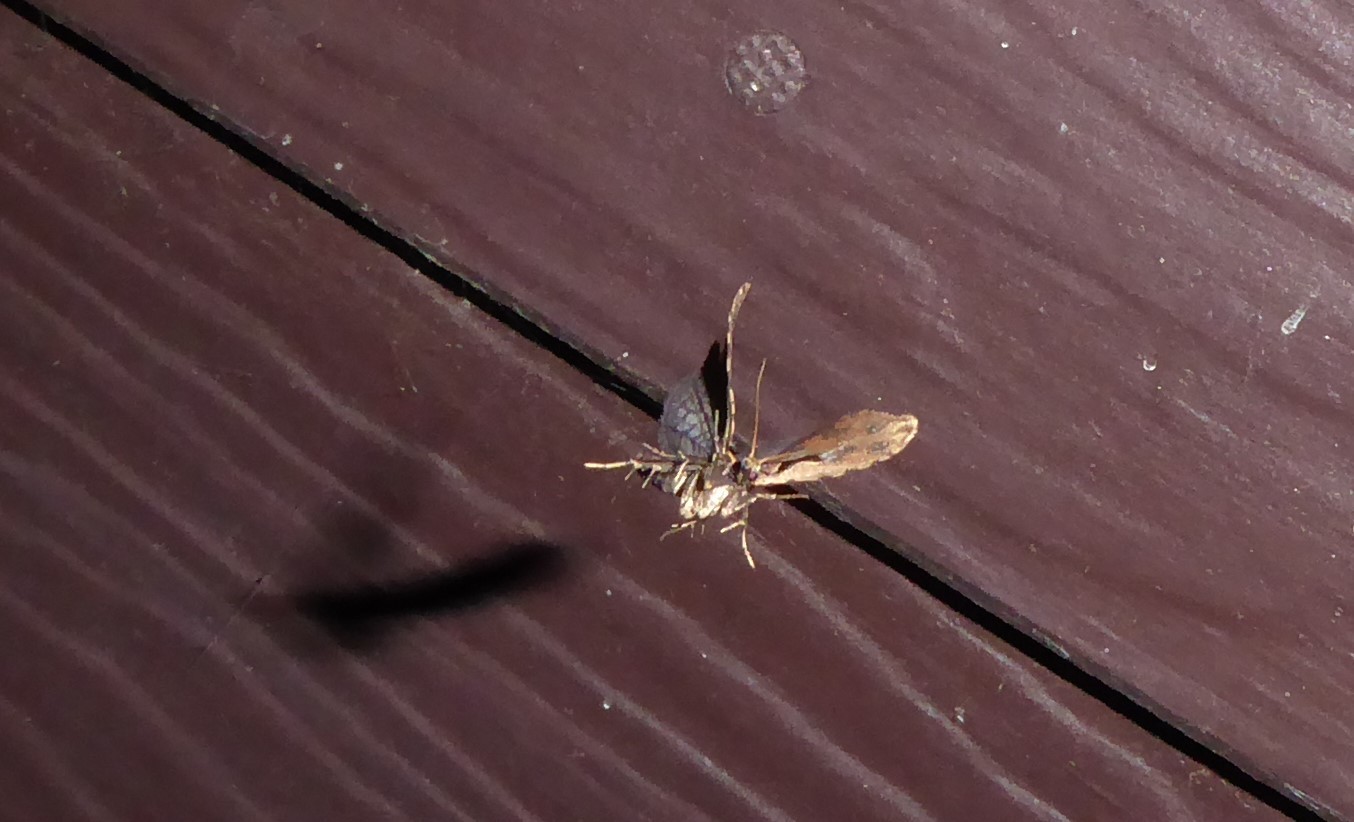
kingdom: Animalia
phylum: Arthropoda
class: Insecta
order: Lepidoptera
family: Tortricidae
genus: Cnephasia
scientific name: Cnephasia jactatana
